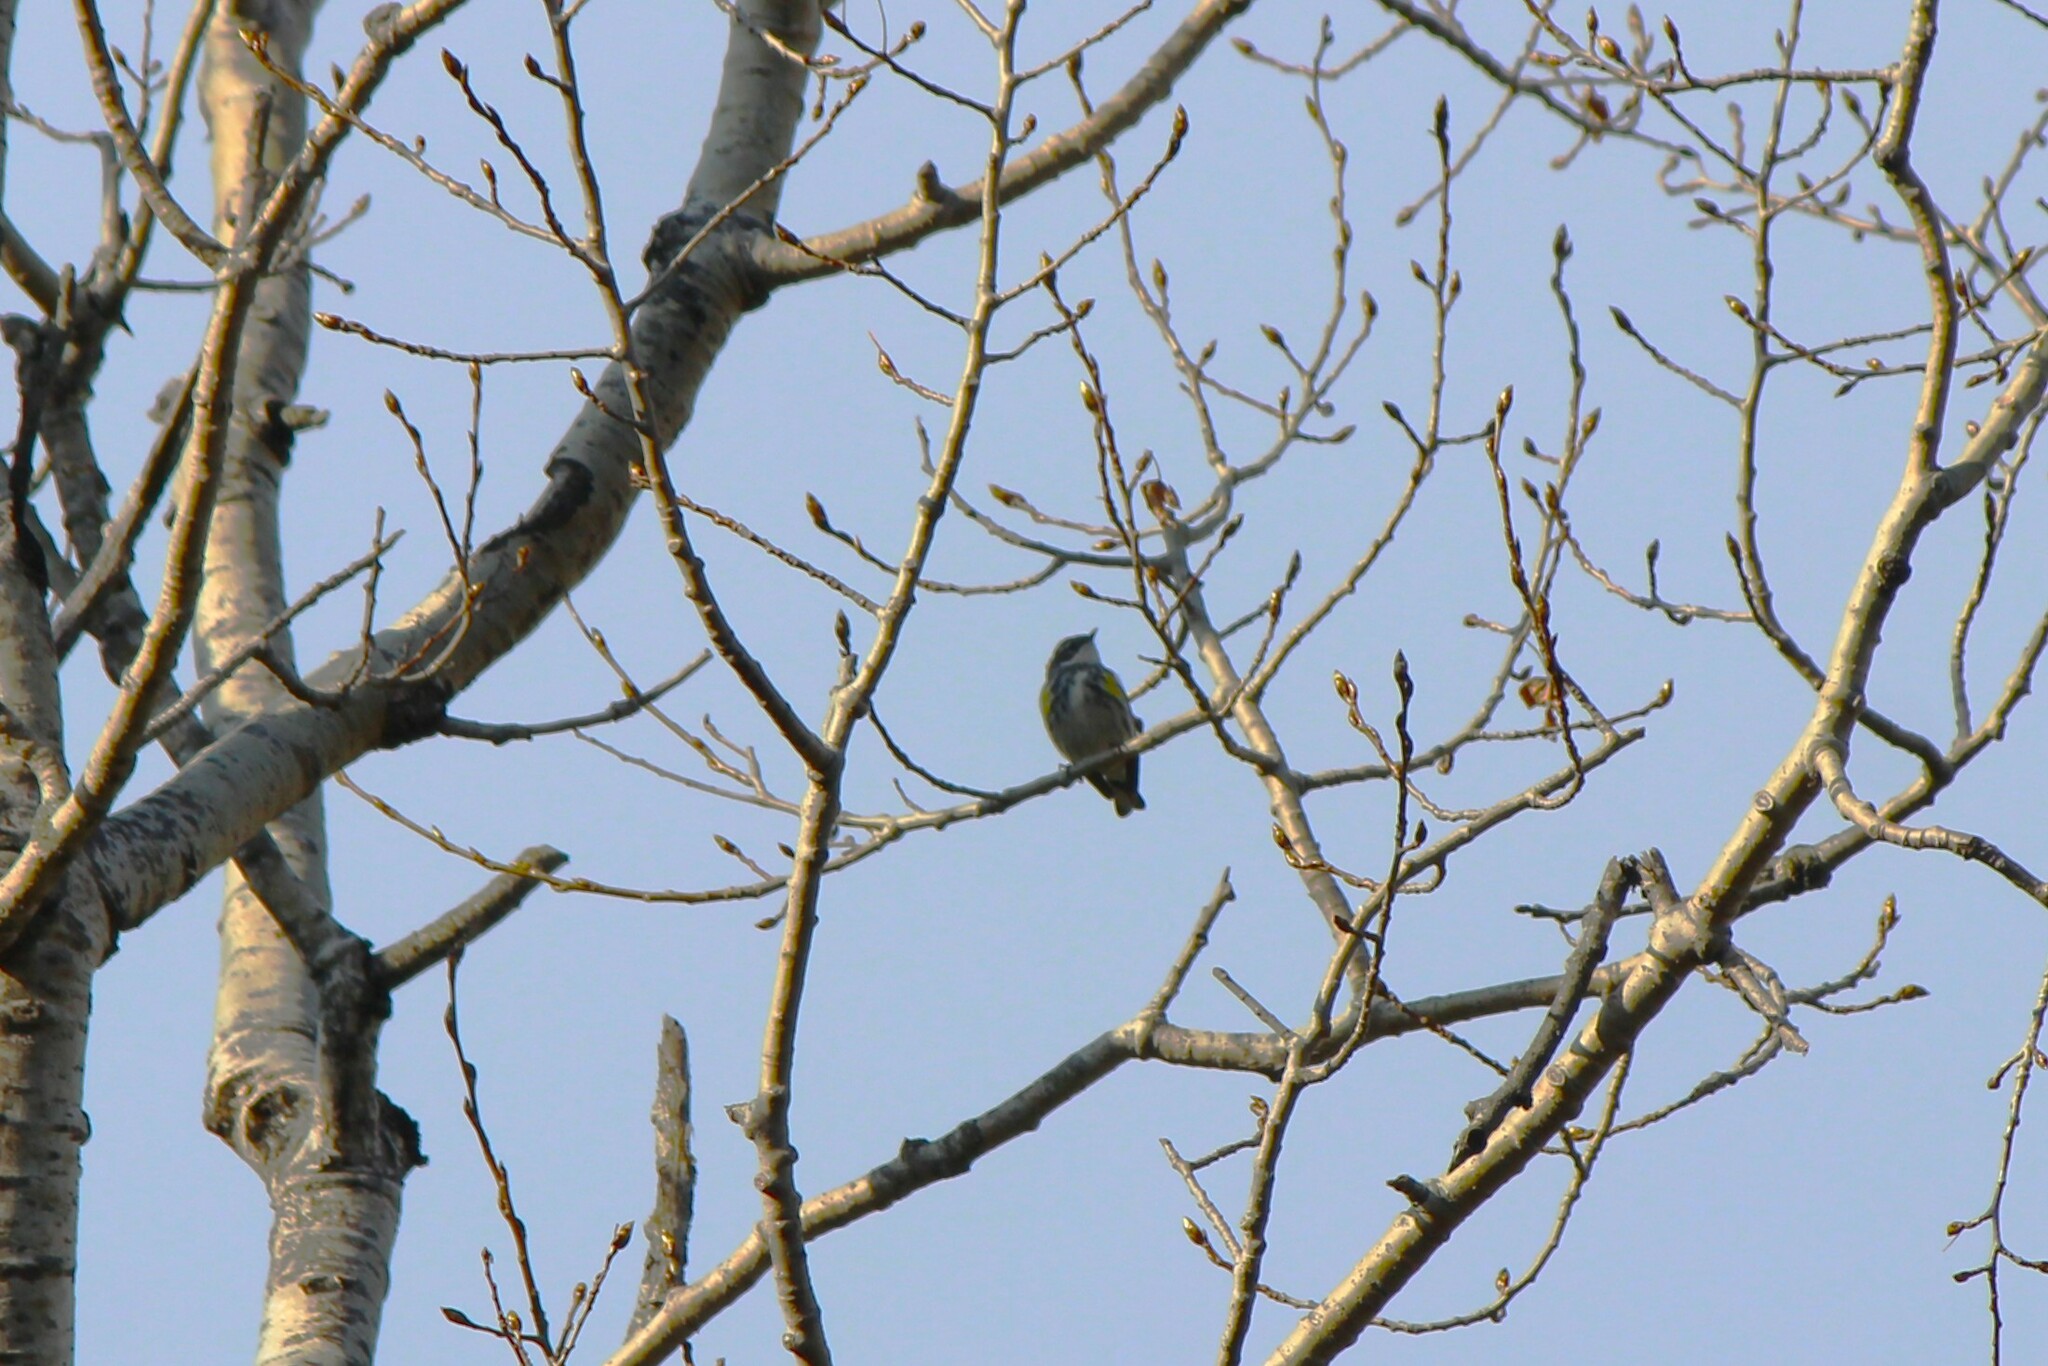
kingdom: Animalia
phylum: Chordata
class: Aves
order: Passeriformes
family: Parulidae
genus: Setophaga
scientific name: Setophaga coronata
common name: Myrtle warbler
